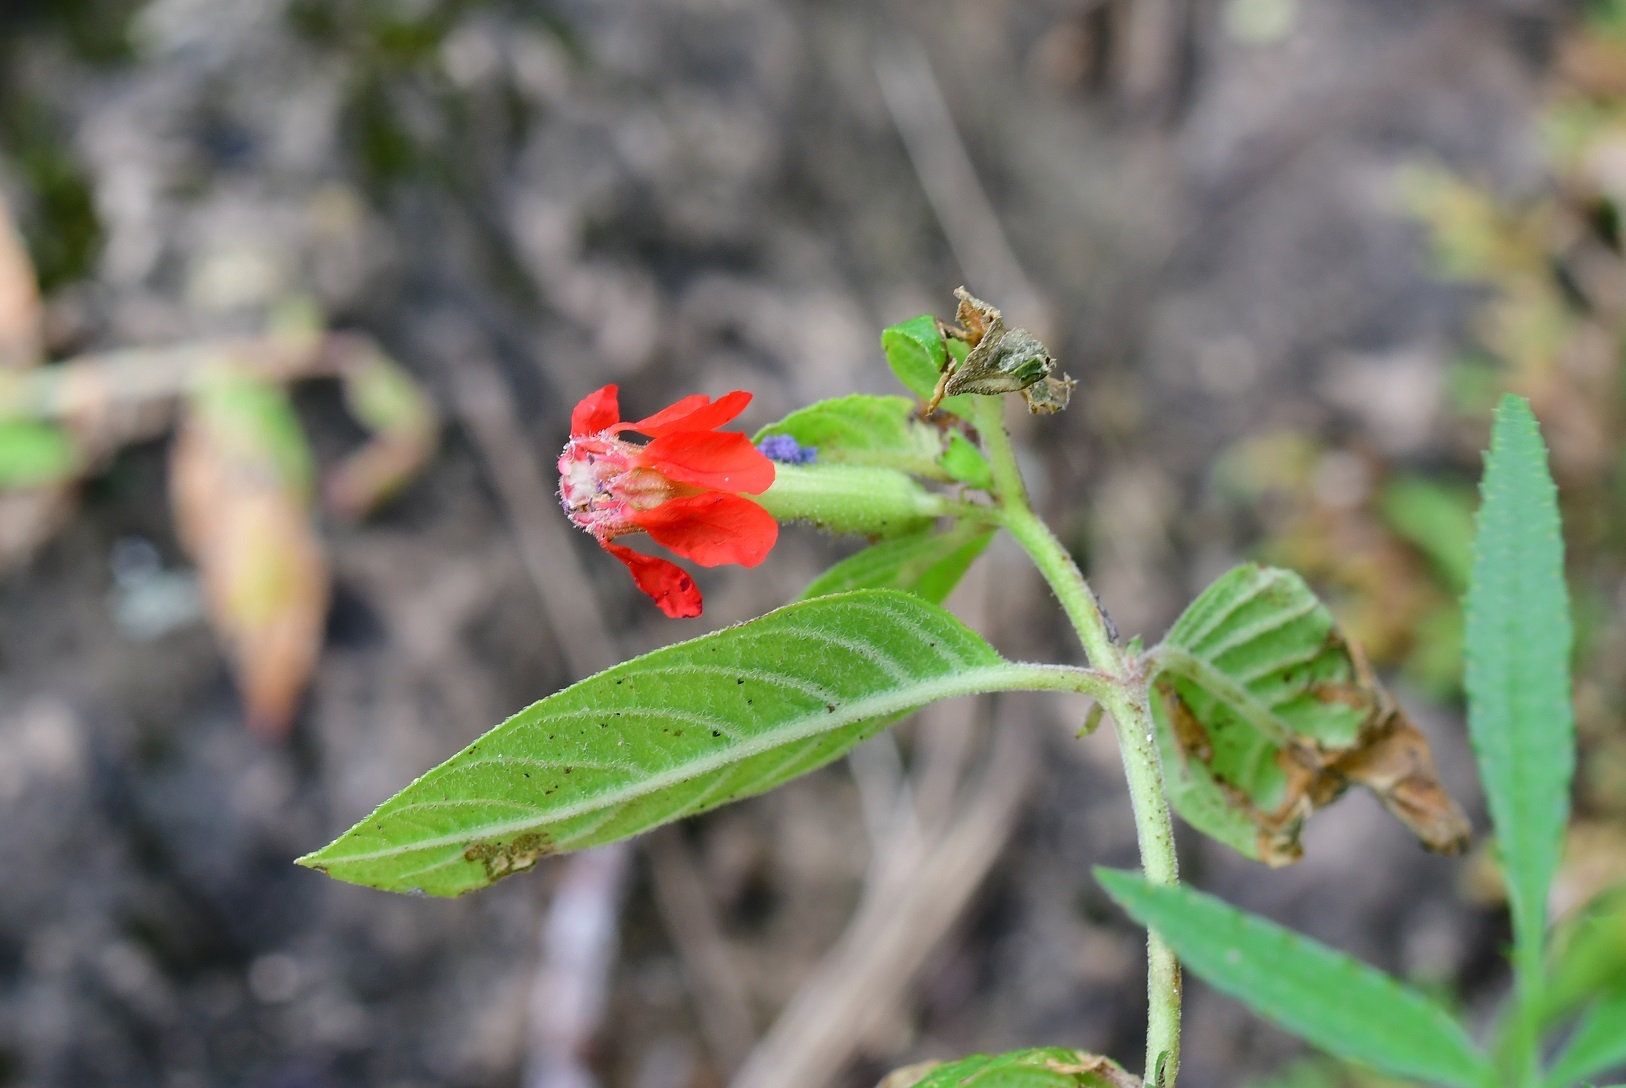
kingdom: Plantae
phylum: Tracheophyta
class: Magnoliopsida
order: Myrtales
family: Lythraceae
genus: Cuphea
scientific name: Cuphea intermedia
